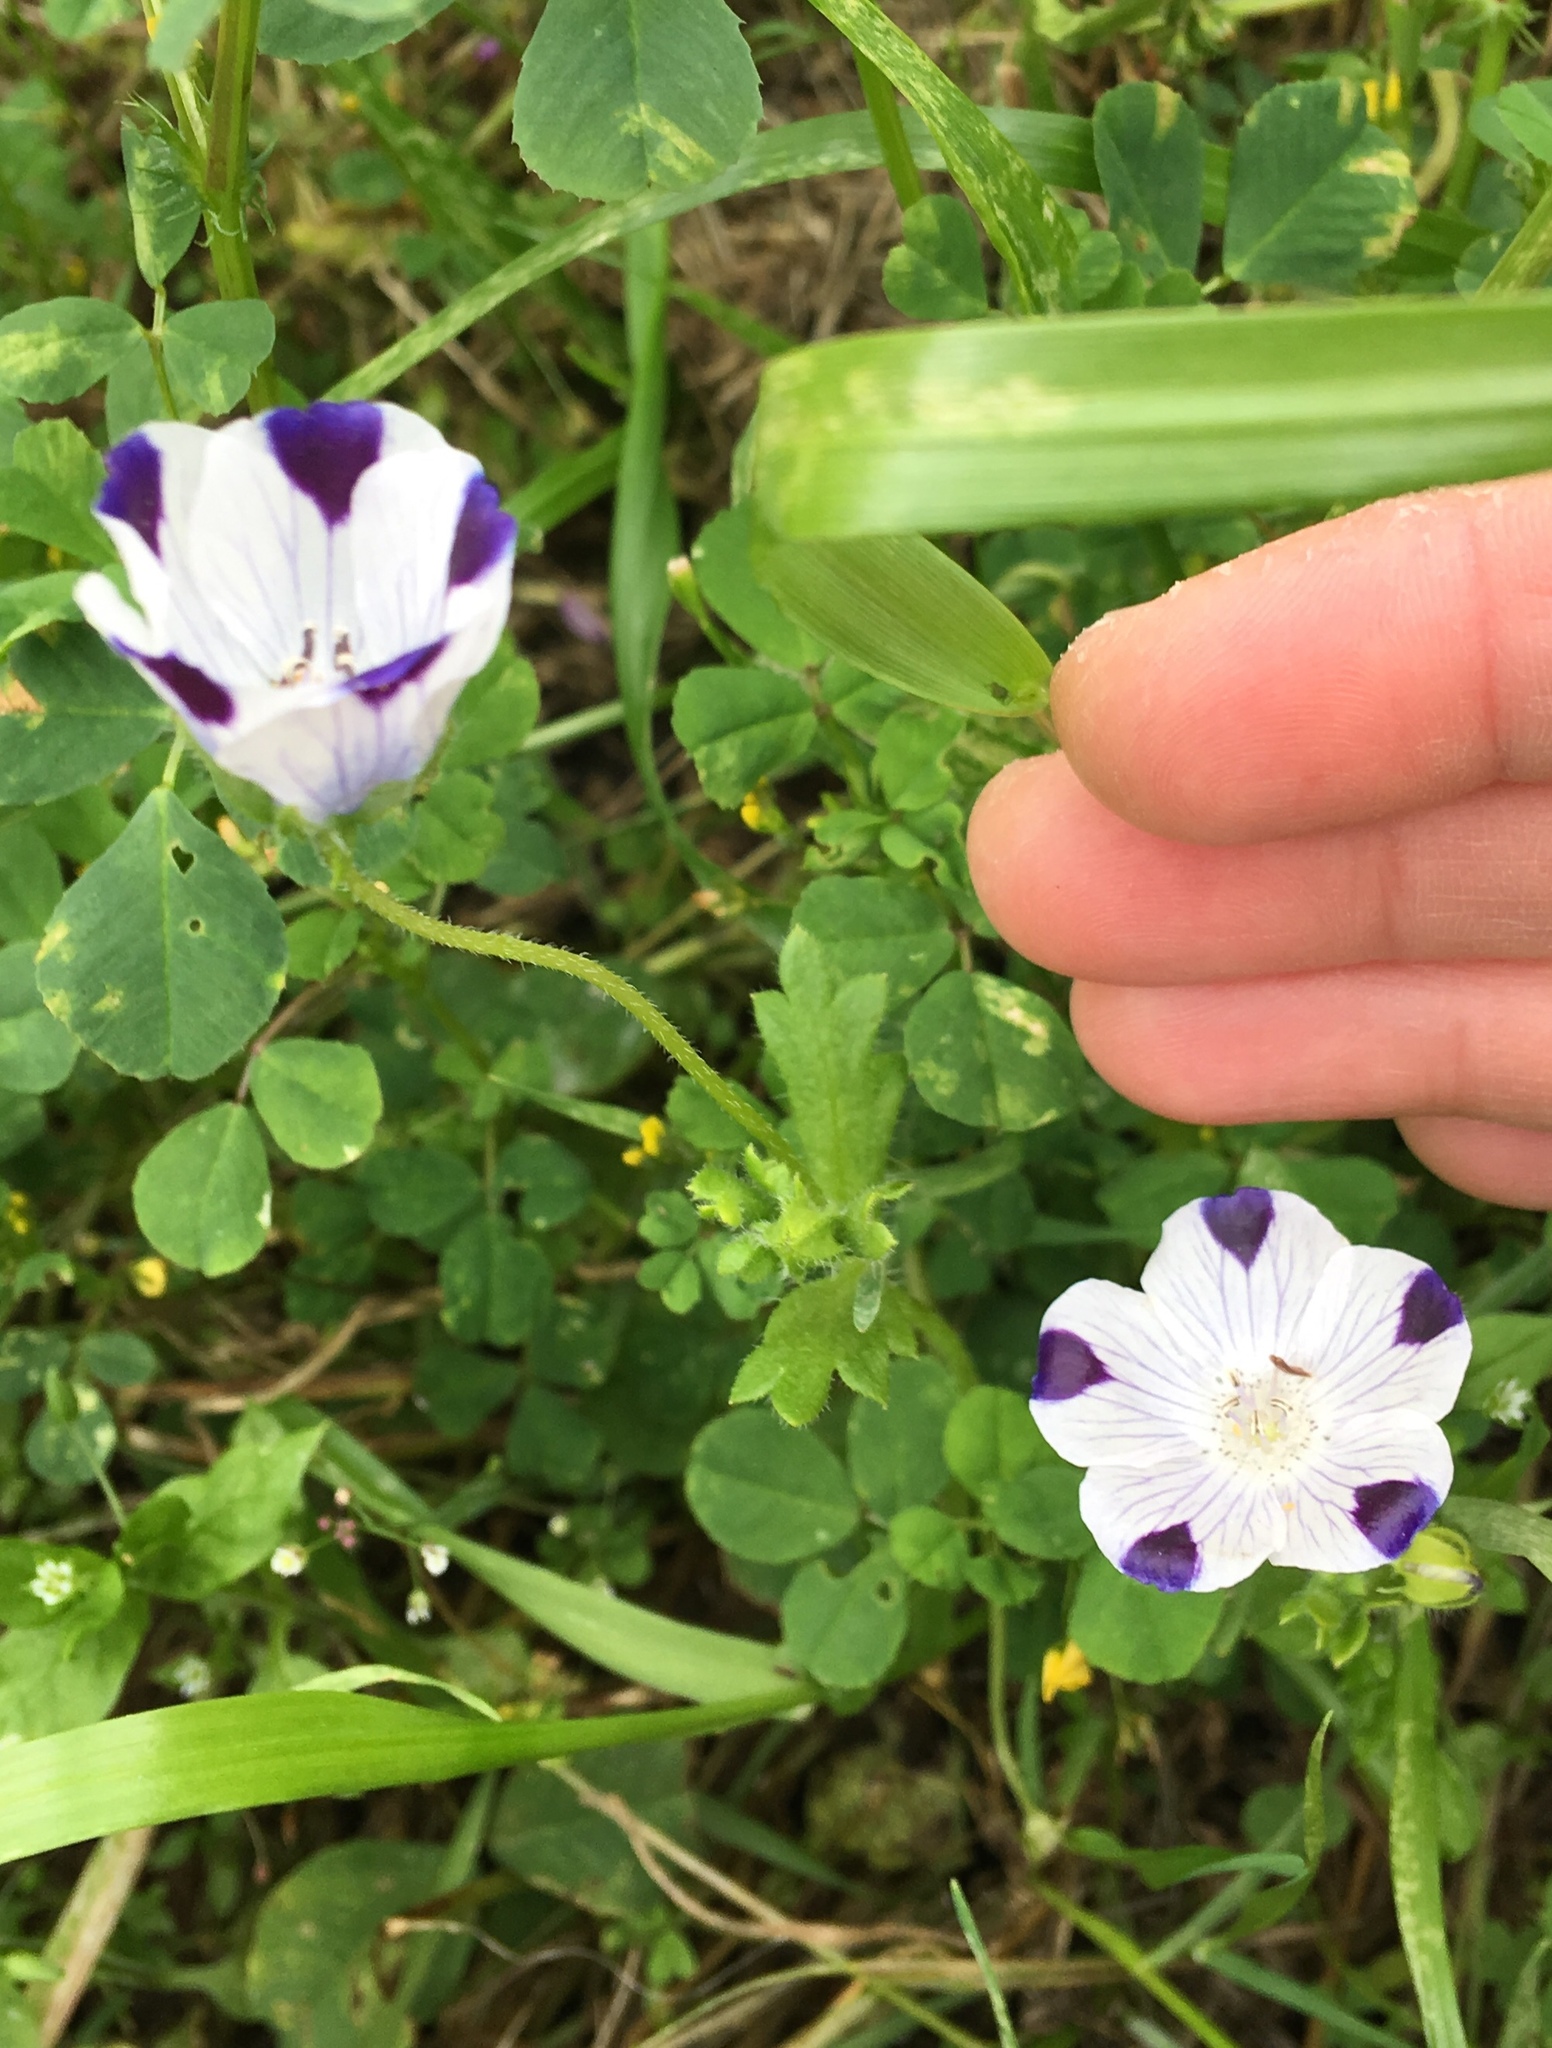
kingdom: Plantae
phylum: Tracheophyta
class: Magnoliopsida
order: Boraginales
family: Hydrophyllaceae
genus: Nemophila
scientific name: Nemophila maculata
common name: Fivespot
